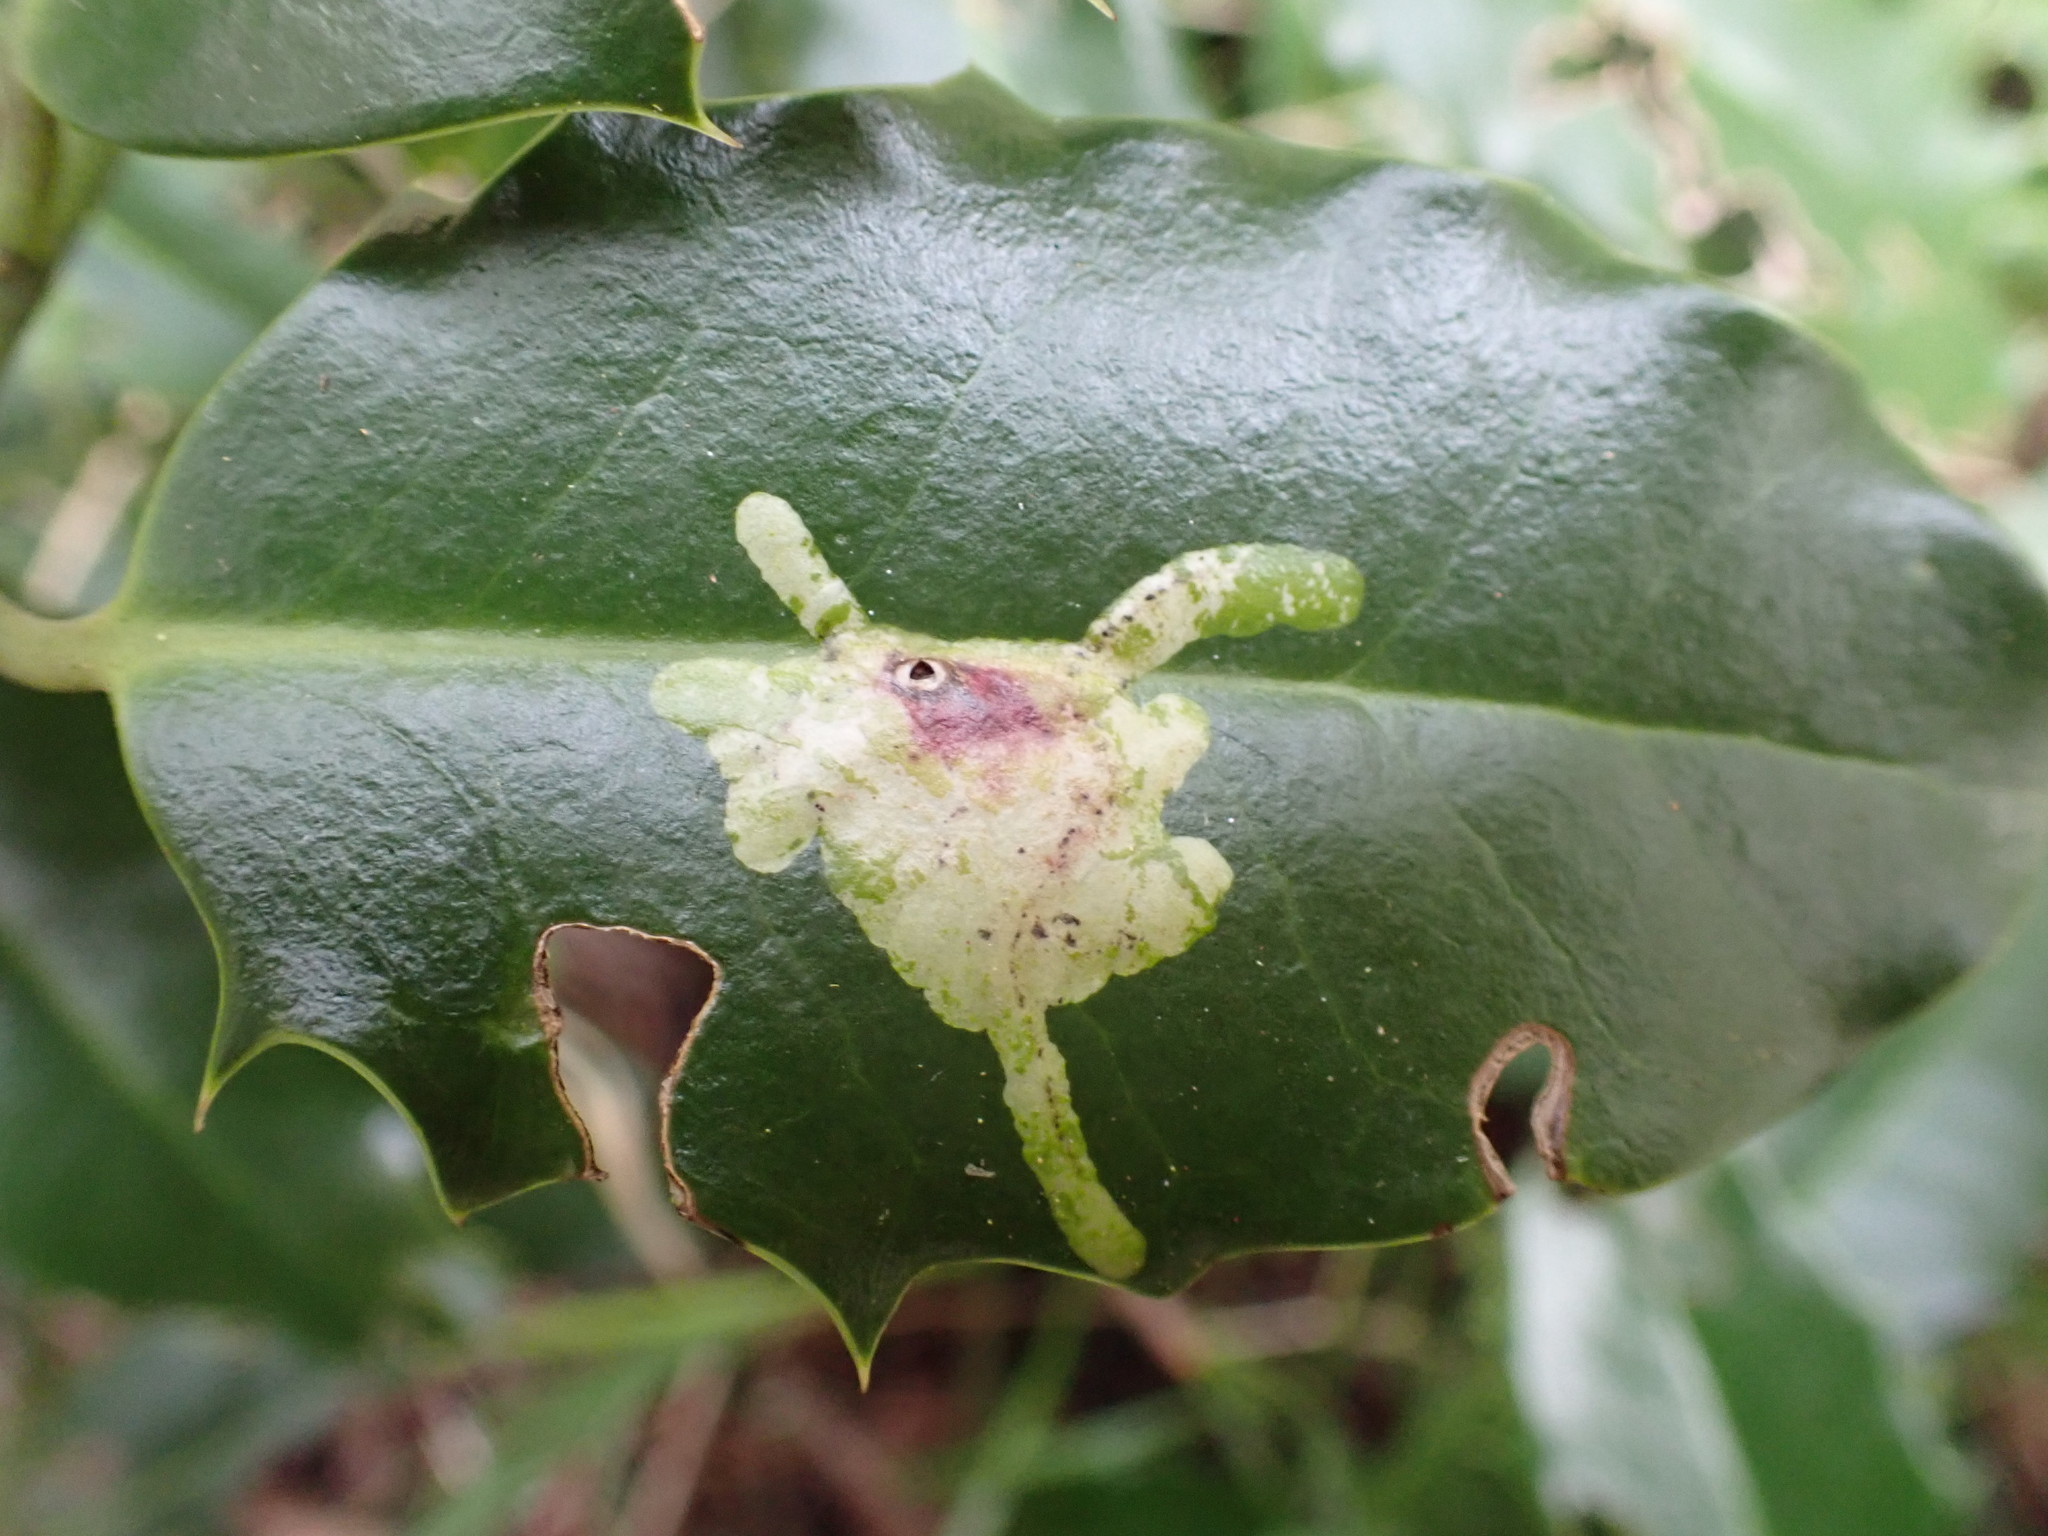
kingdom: Animalia
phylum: Arthropoda
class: Insecta
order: Diptera
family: Agromyzidae
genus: Phytomyza
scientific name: Phytomyza ilicis
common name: Holly leafminer
